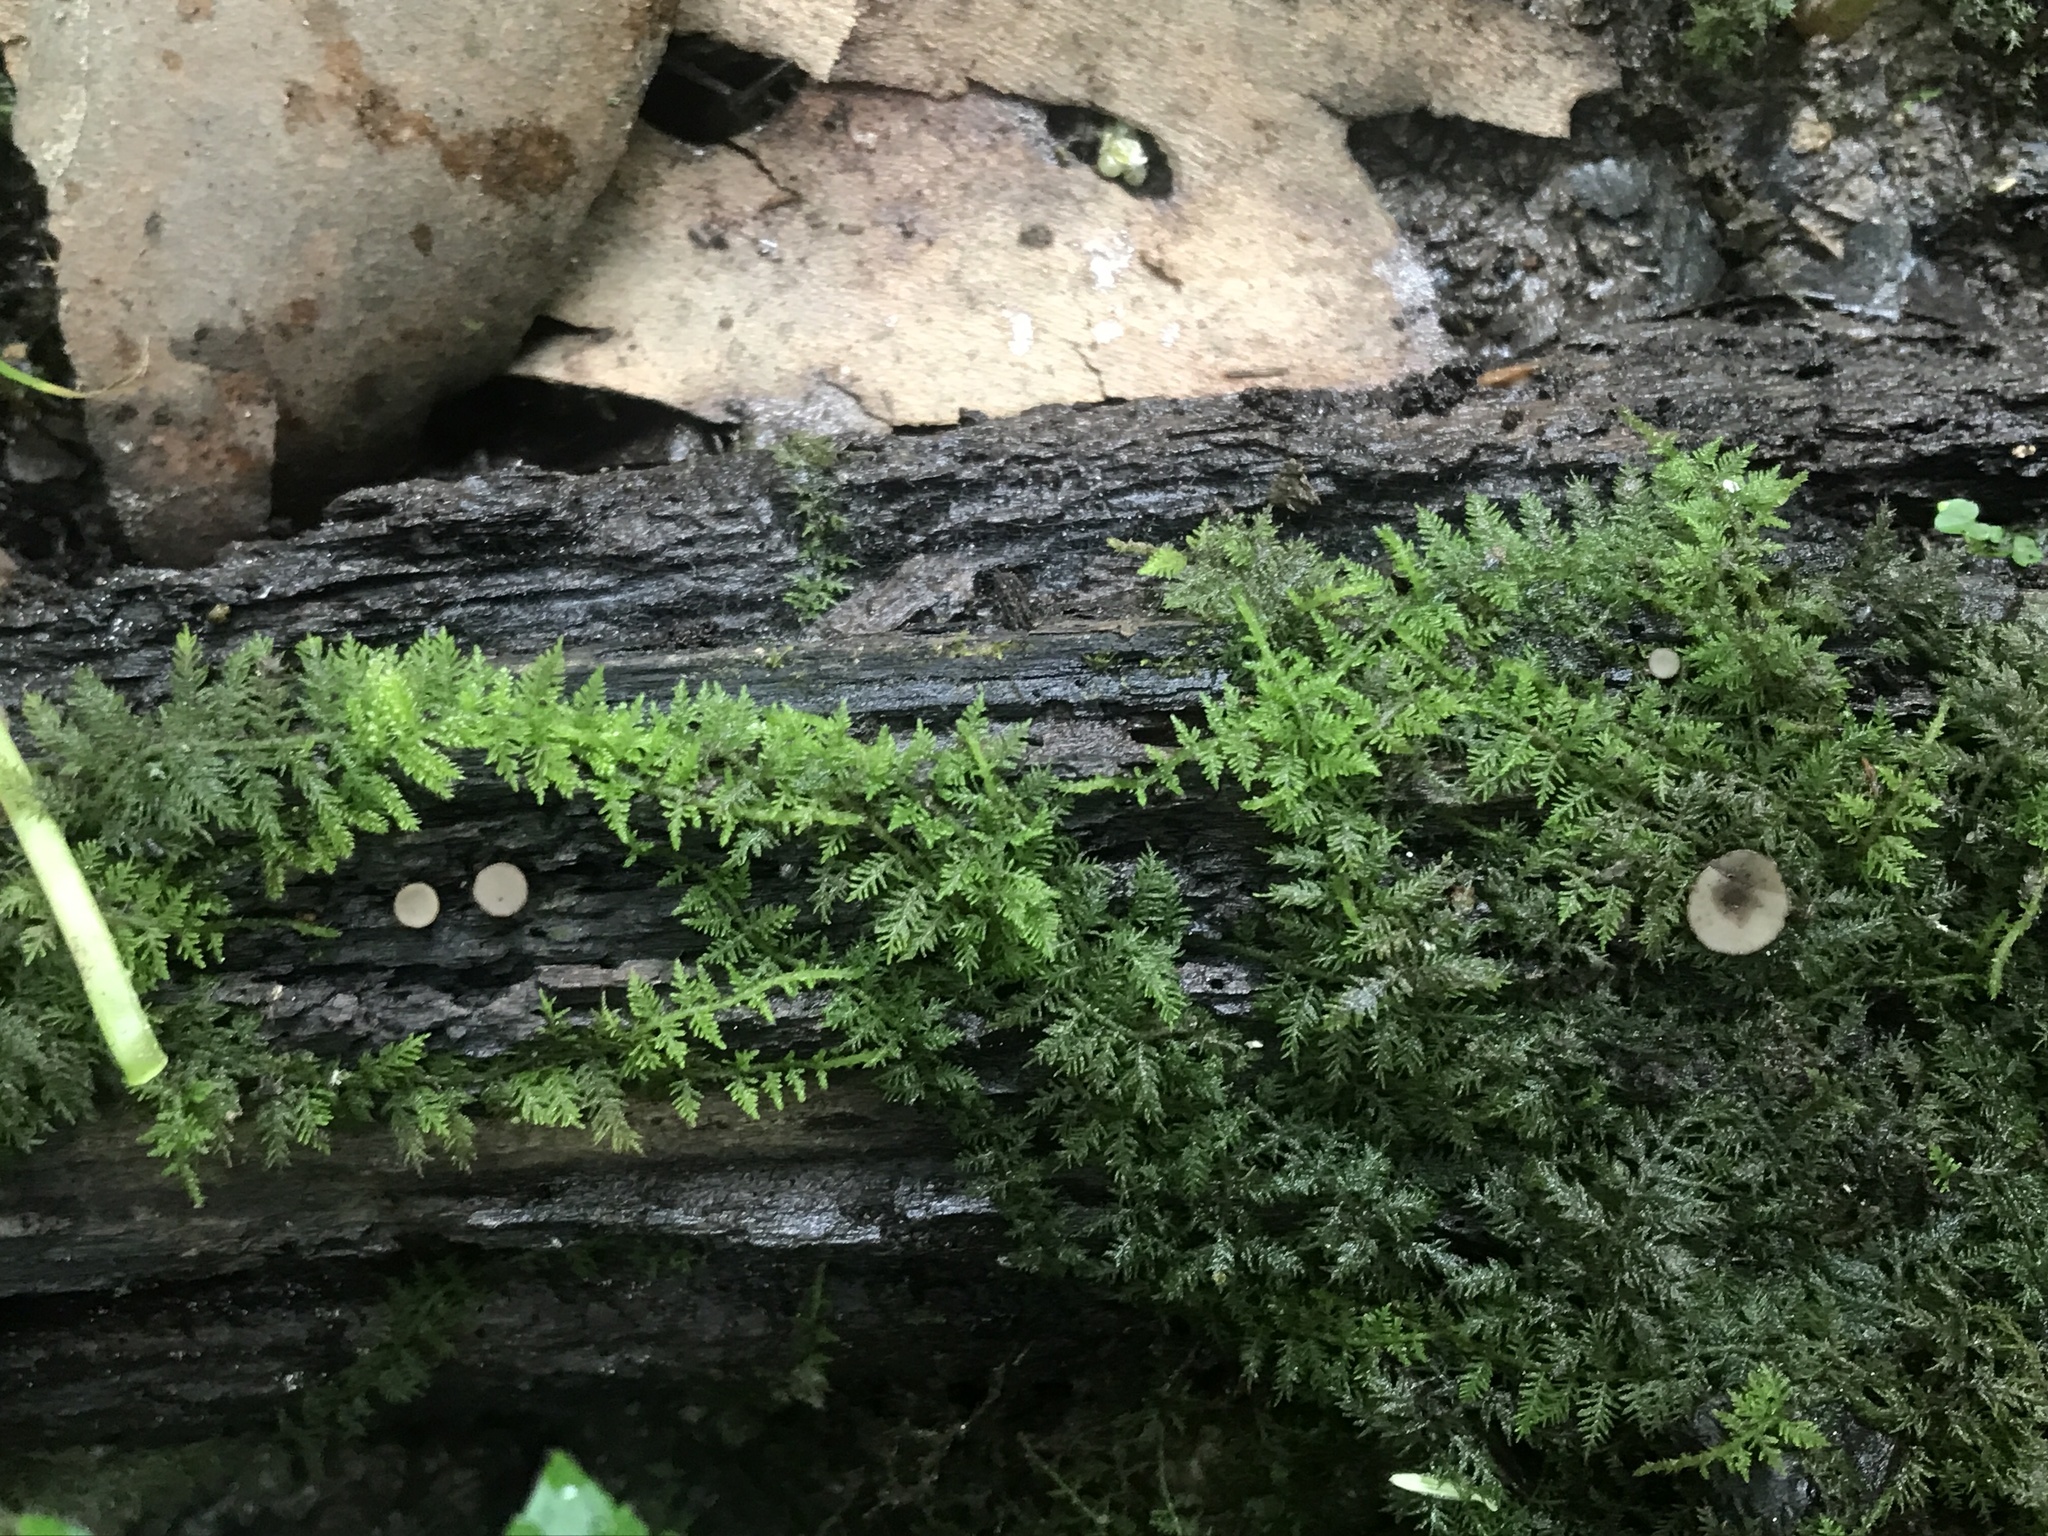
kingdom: Fungi
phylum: Ascomycota
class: Leotiomycetes
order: Helotiales
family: Helotiaceae
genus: Tatraea
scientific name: Tatraea macrospora
